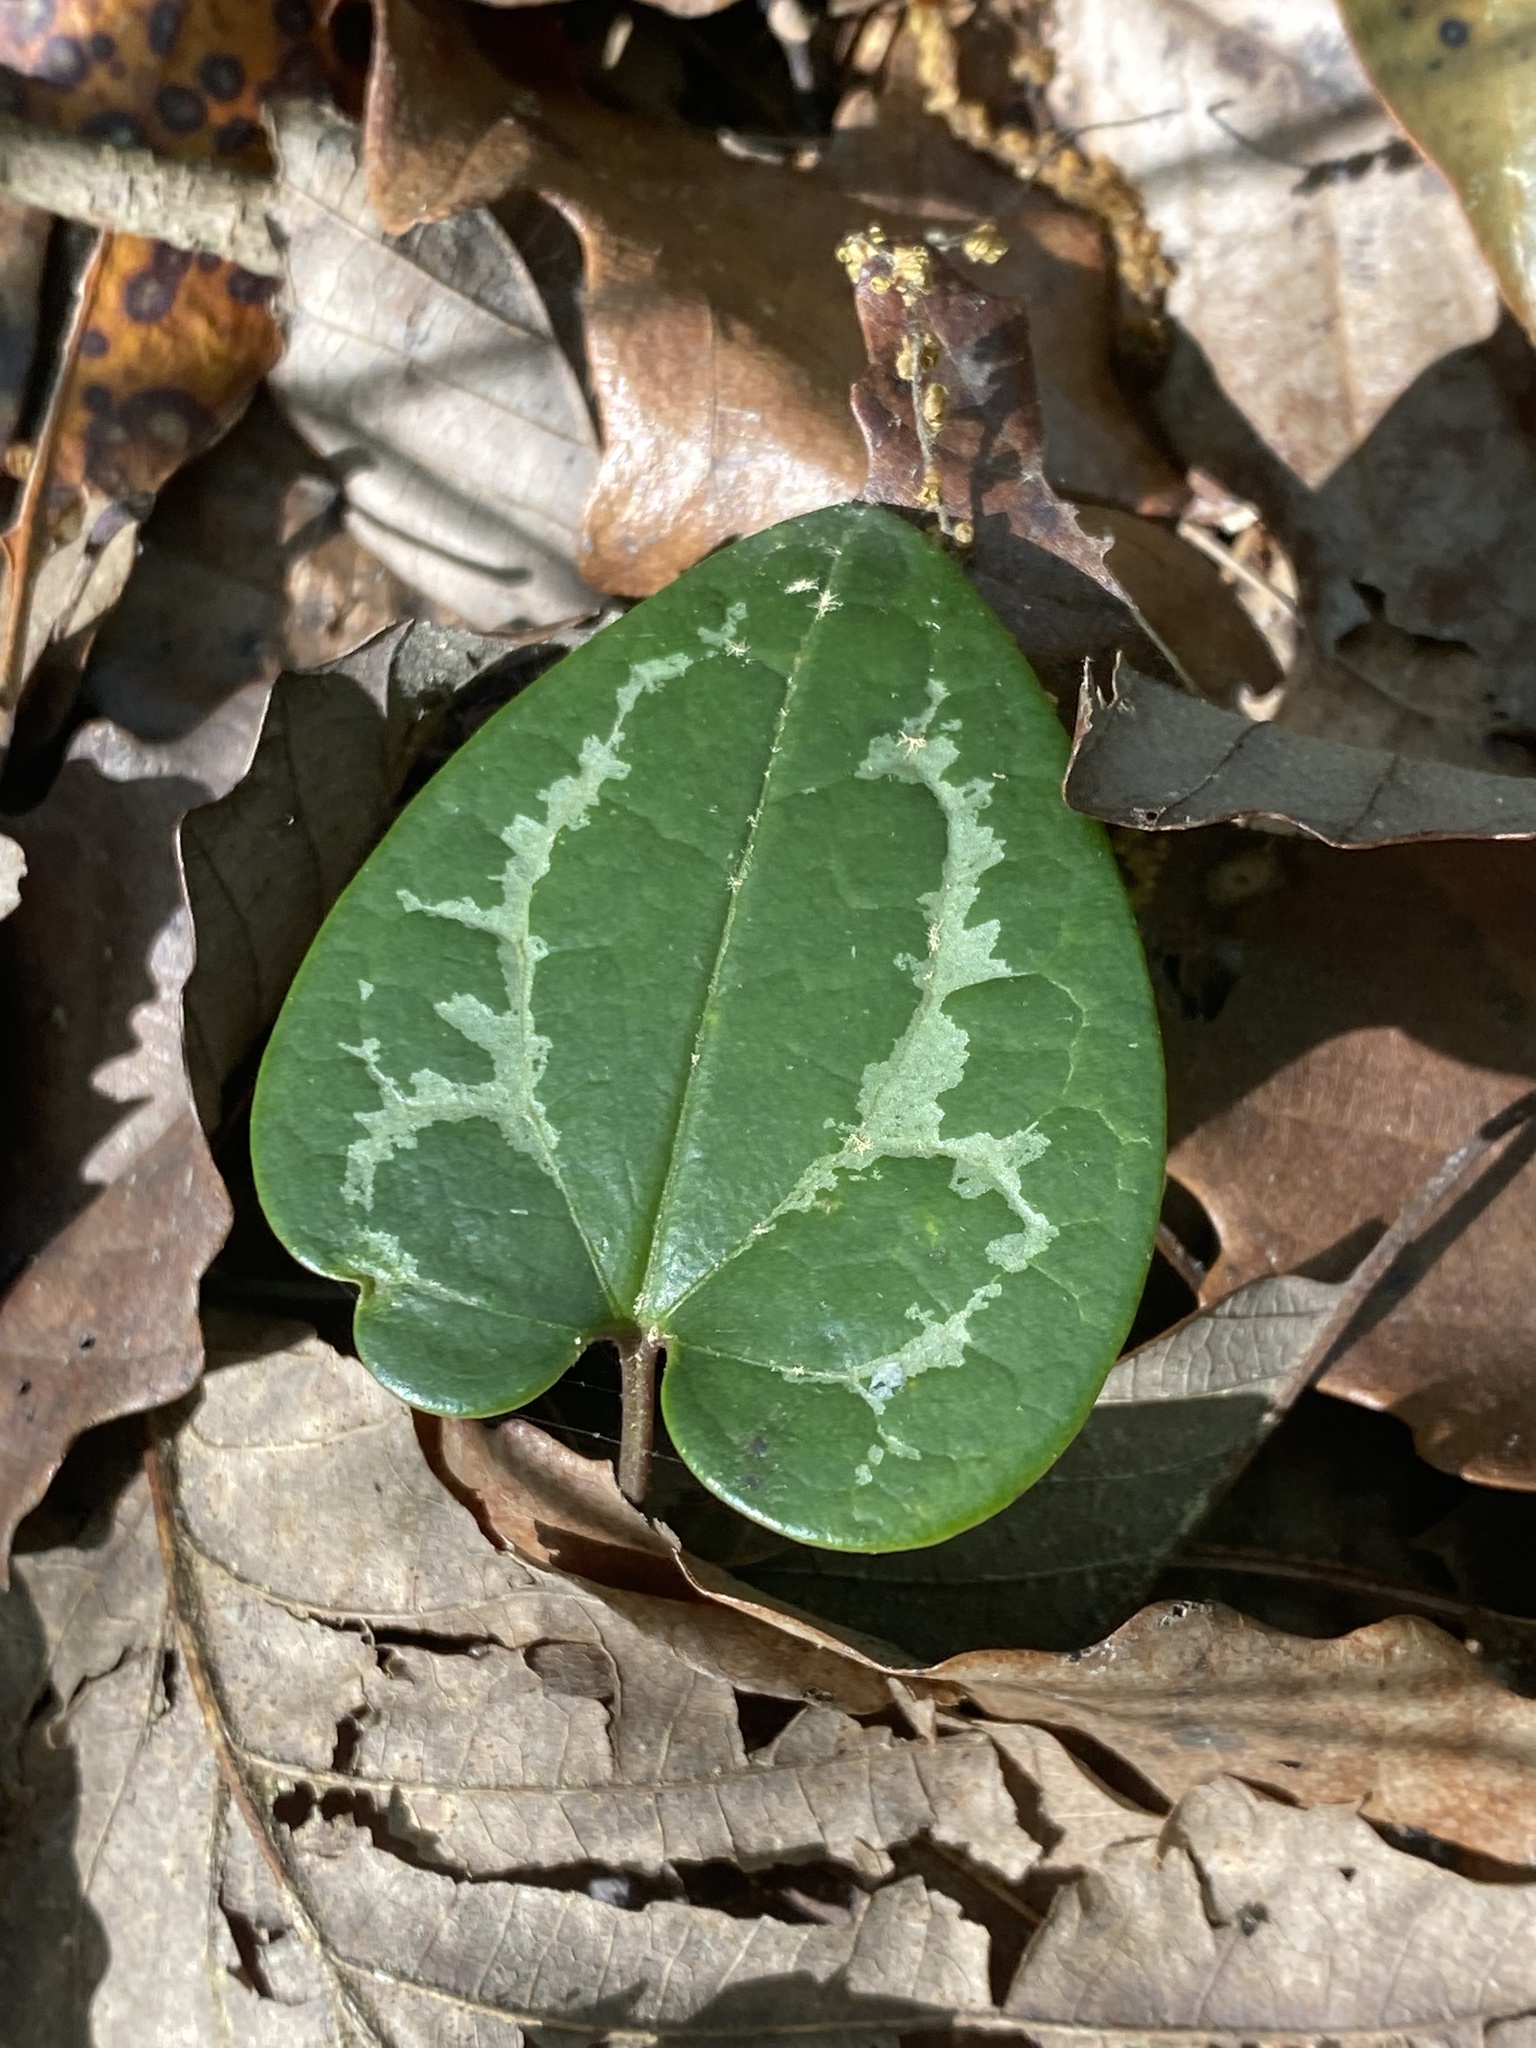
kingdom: Plantae
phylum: Tracheophyta
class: Magnoliopsida
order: Piperales
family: Aristolochiaceae
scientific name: Aristolochiaceae
